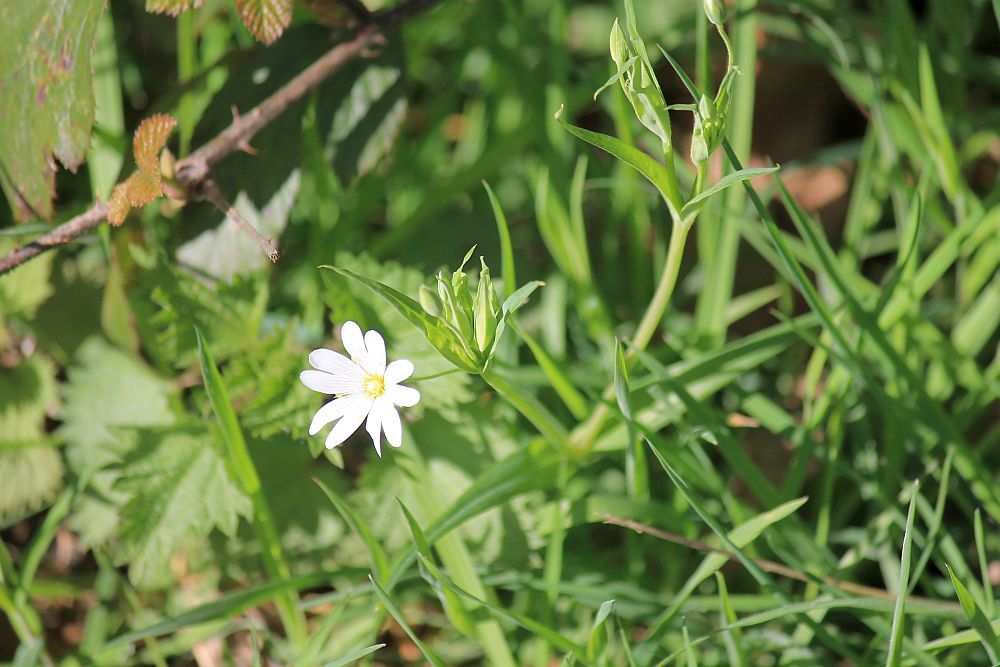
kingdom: Plantae
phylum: Tracheophyta
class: Magnoliopsida
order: Caryophyllales
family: Caryophyllaceae
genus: Rabelera
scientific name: Rabelera holostea
